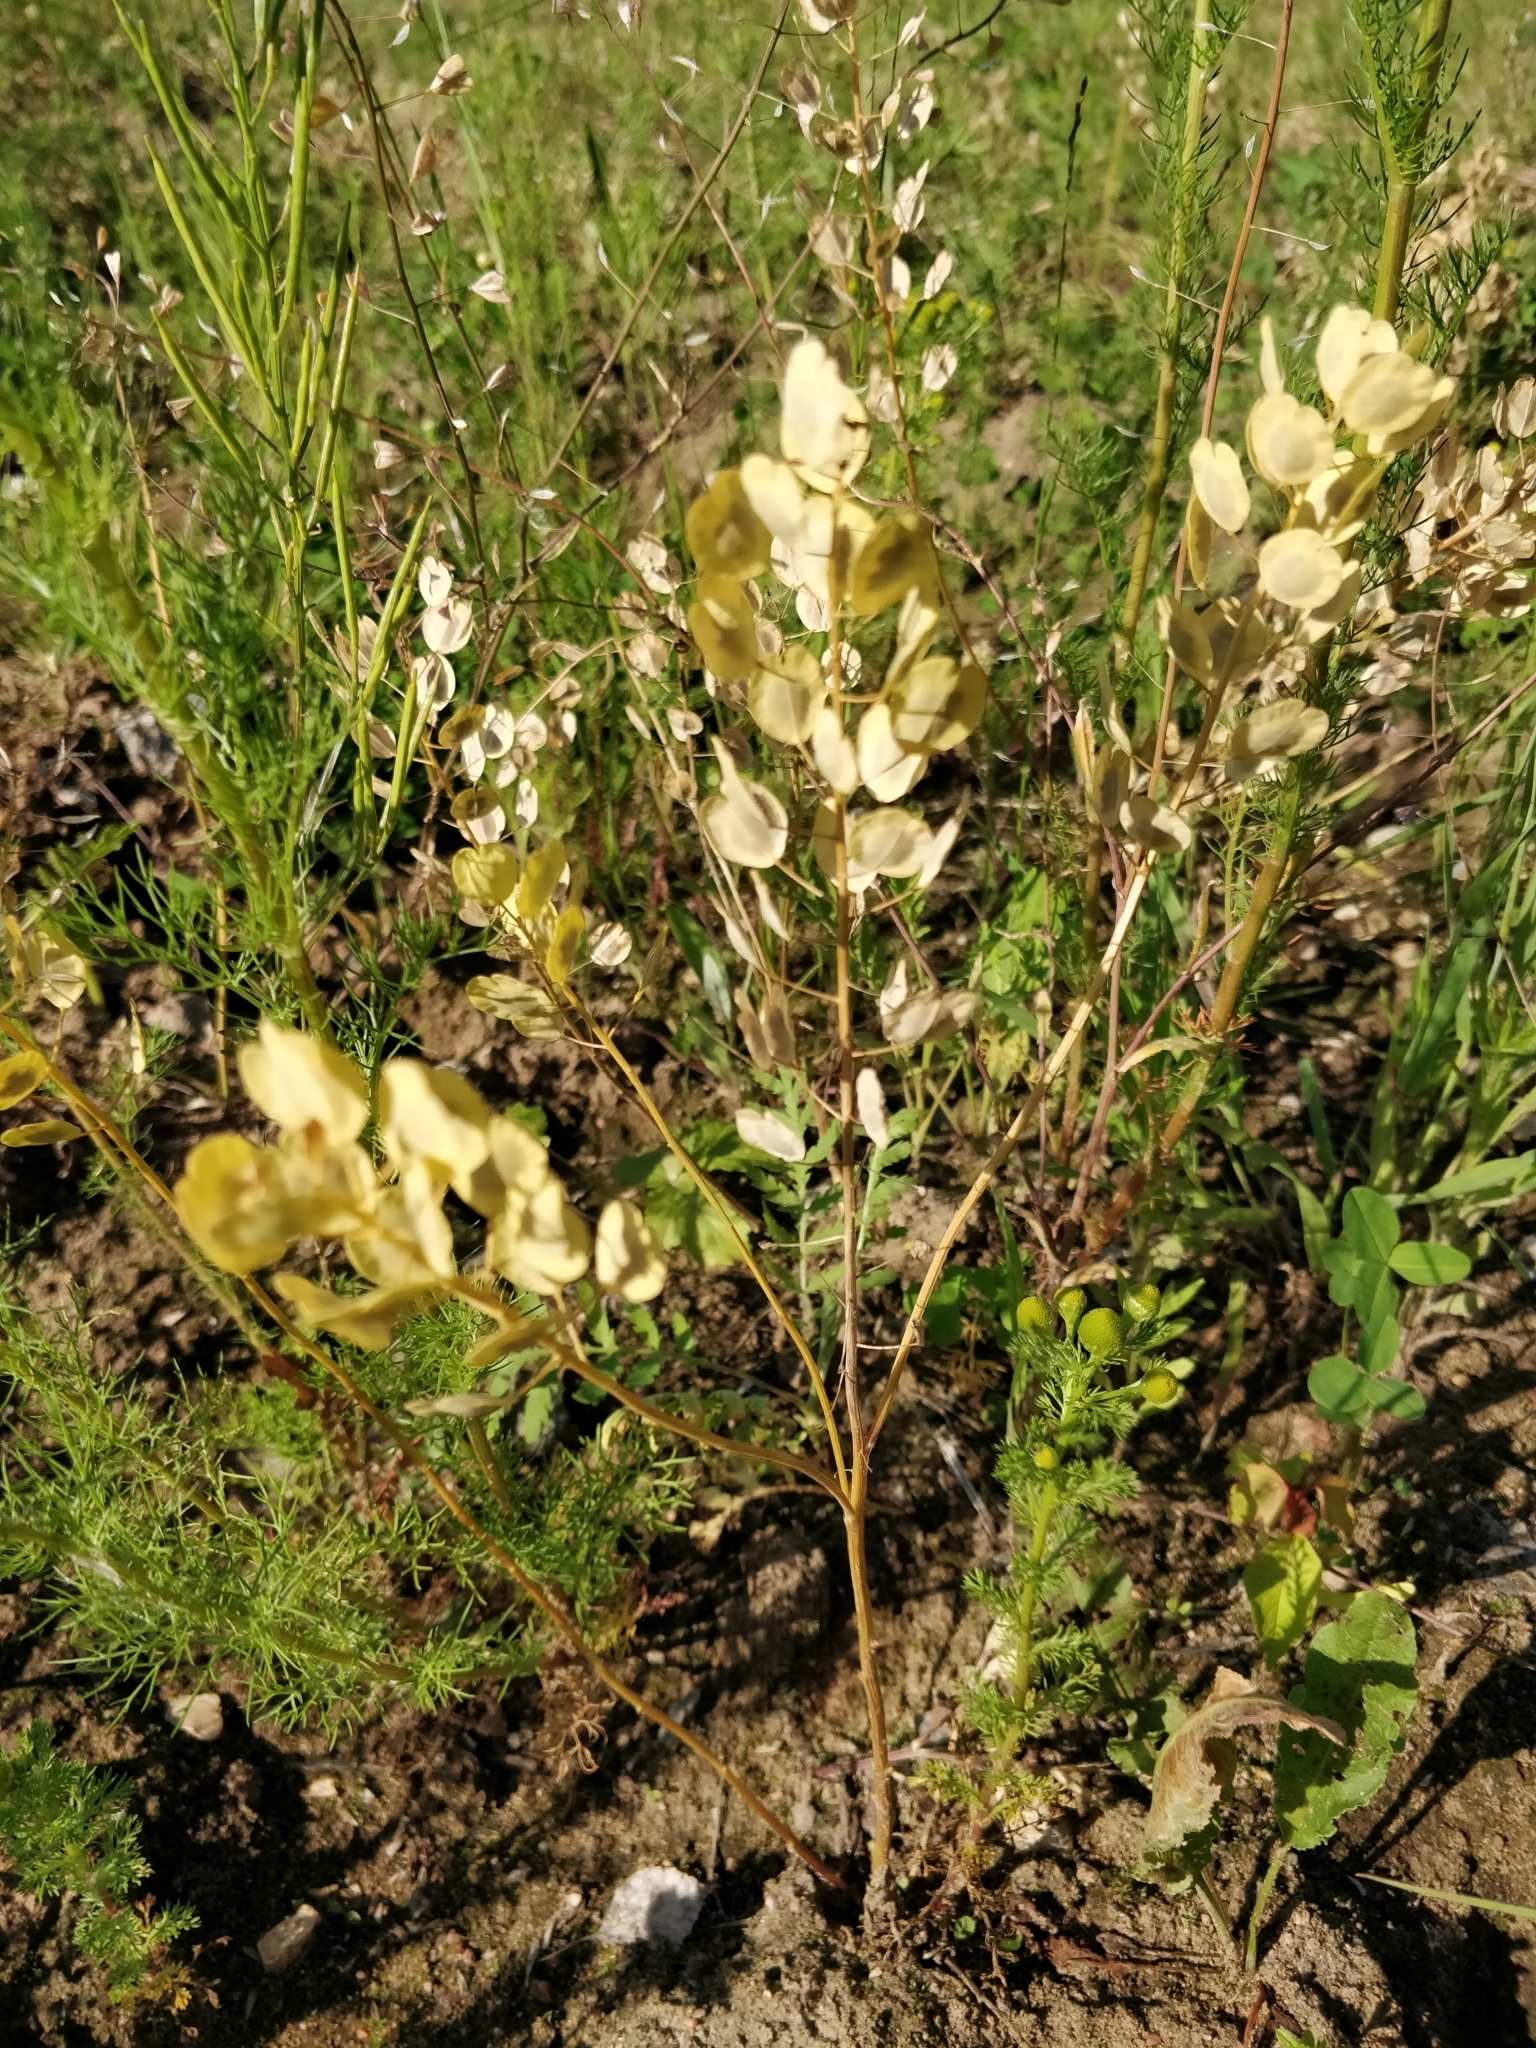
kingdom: Plantae
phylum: Tracheophyta
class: Magnoliopsida
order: Brassicales
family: Brassicaceae
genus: Thlaspi
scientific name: Thlaspi arvense
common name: Field pennycress
